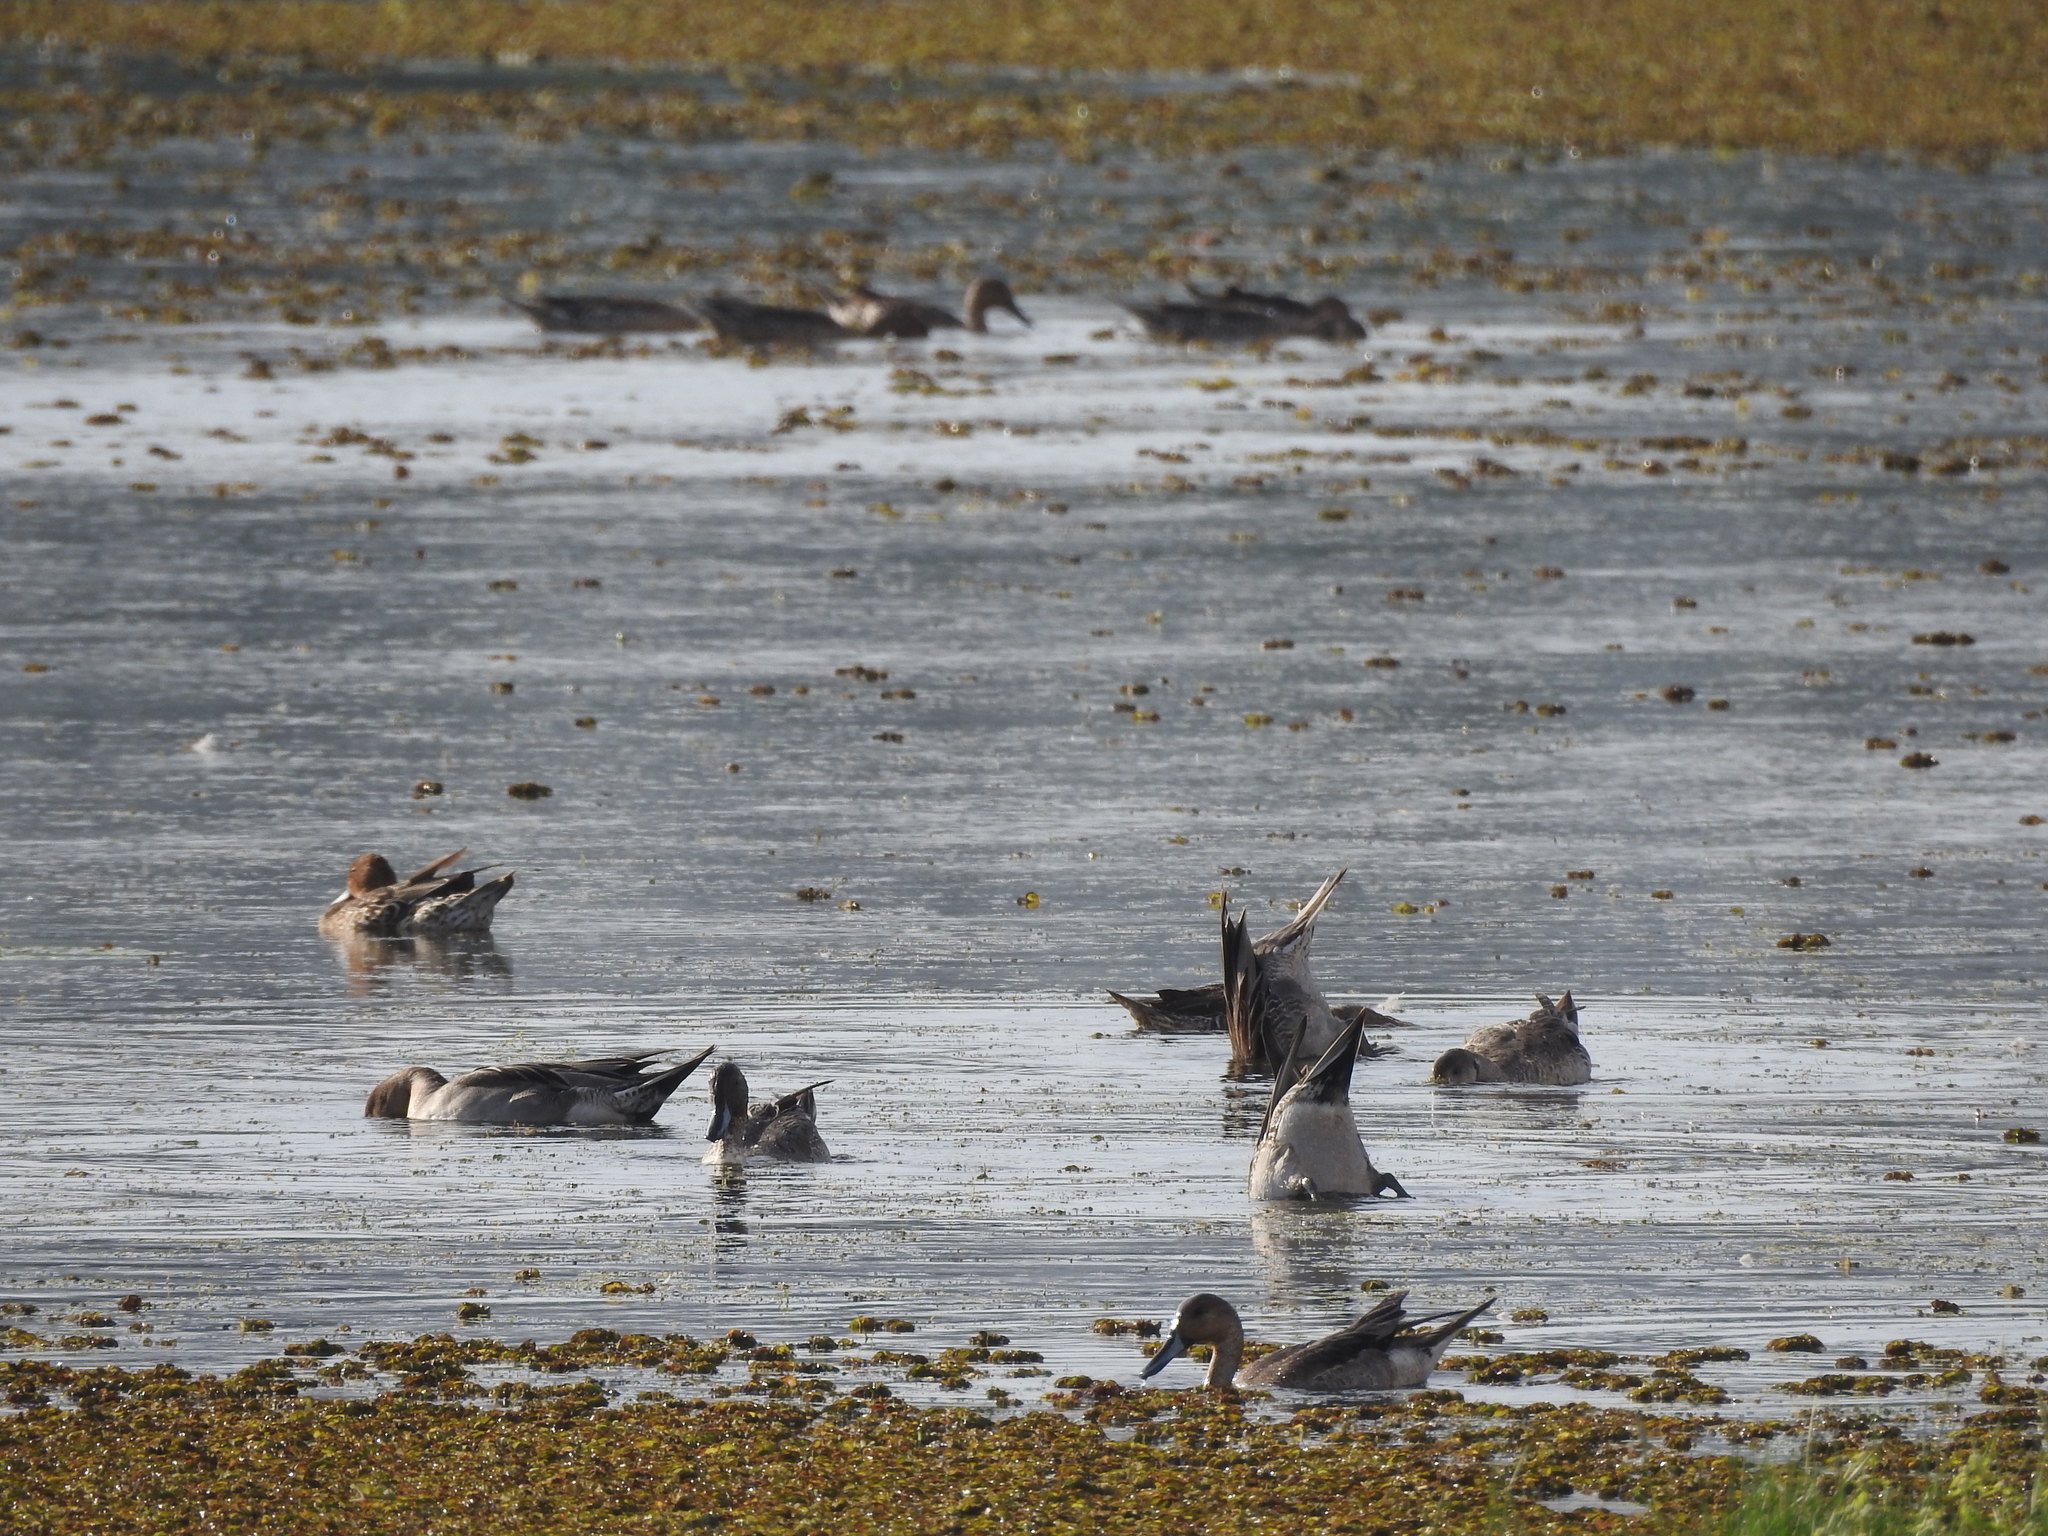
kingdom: Animalia
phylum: Chordata
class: Aves
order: Anseriformes
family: Anatidae
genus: Anas
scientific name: Anas acuta
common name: Northern pintail
